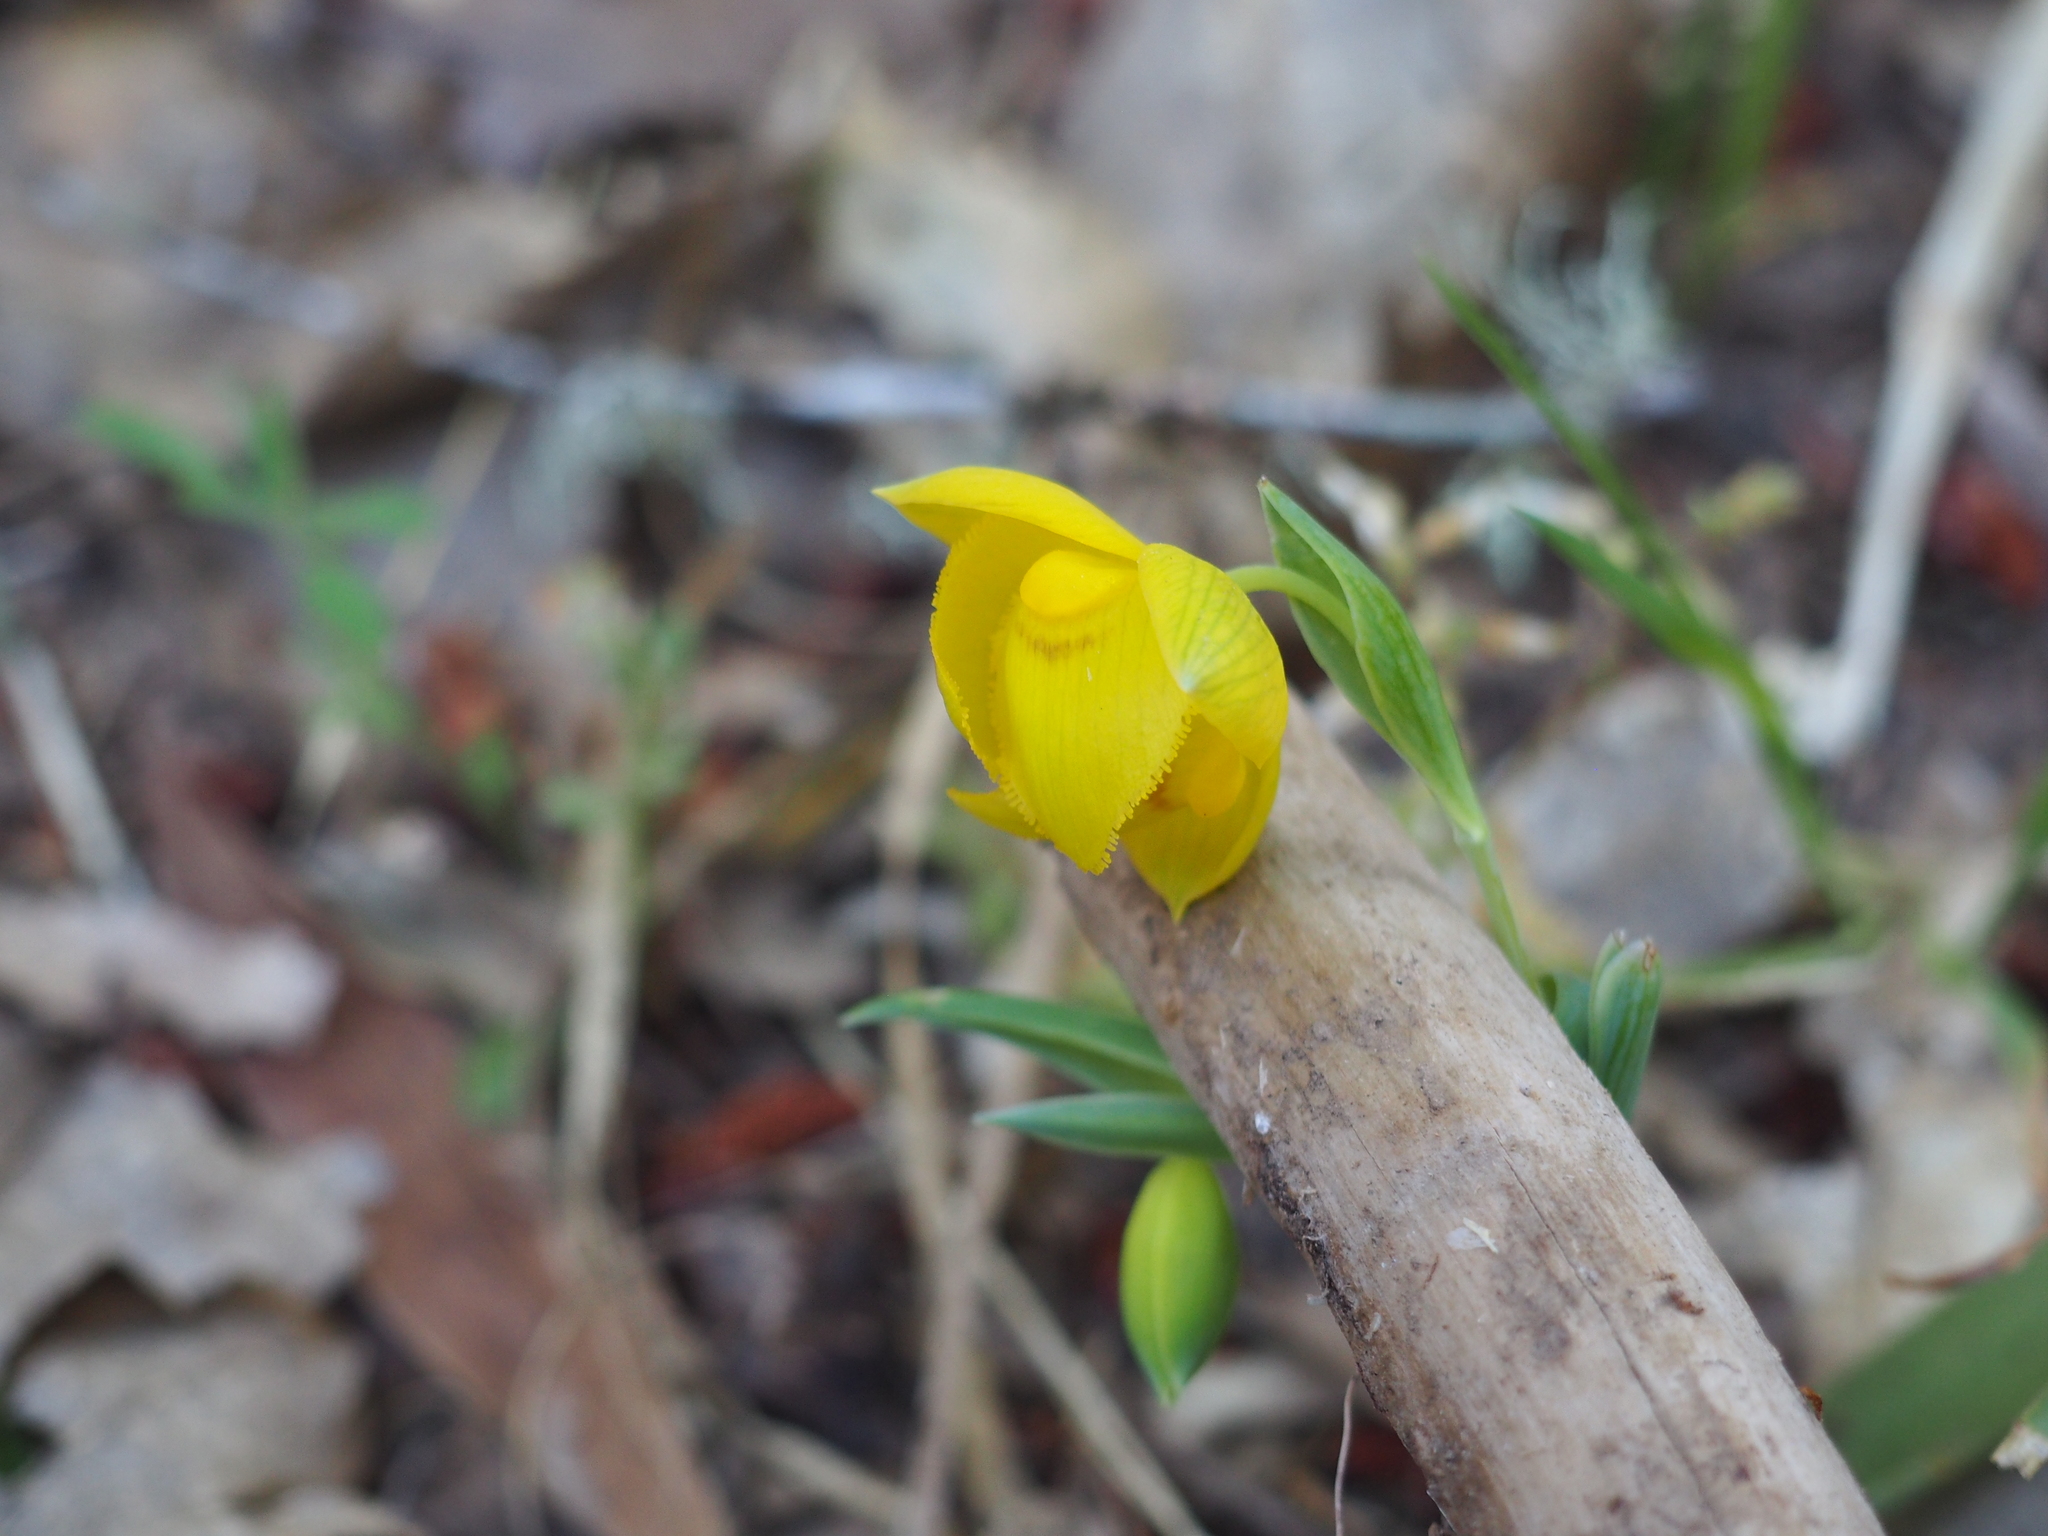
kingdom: Plantae
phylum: Tracheophyta
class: Liliopsida
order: Liliales
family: Liliaceae
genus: Calochortus
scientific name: Calochortus amabilis
